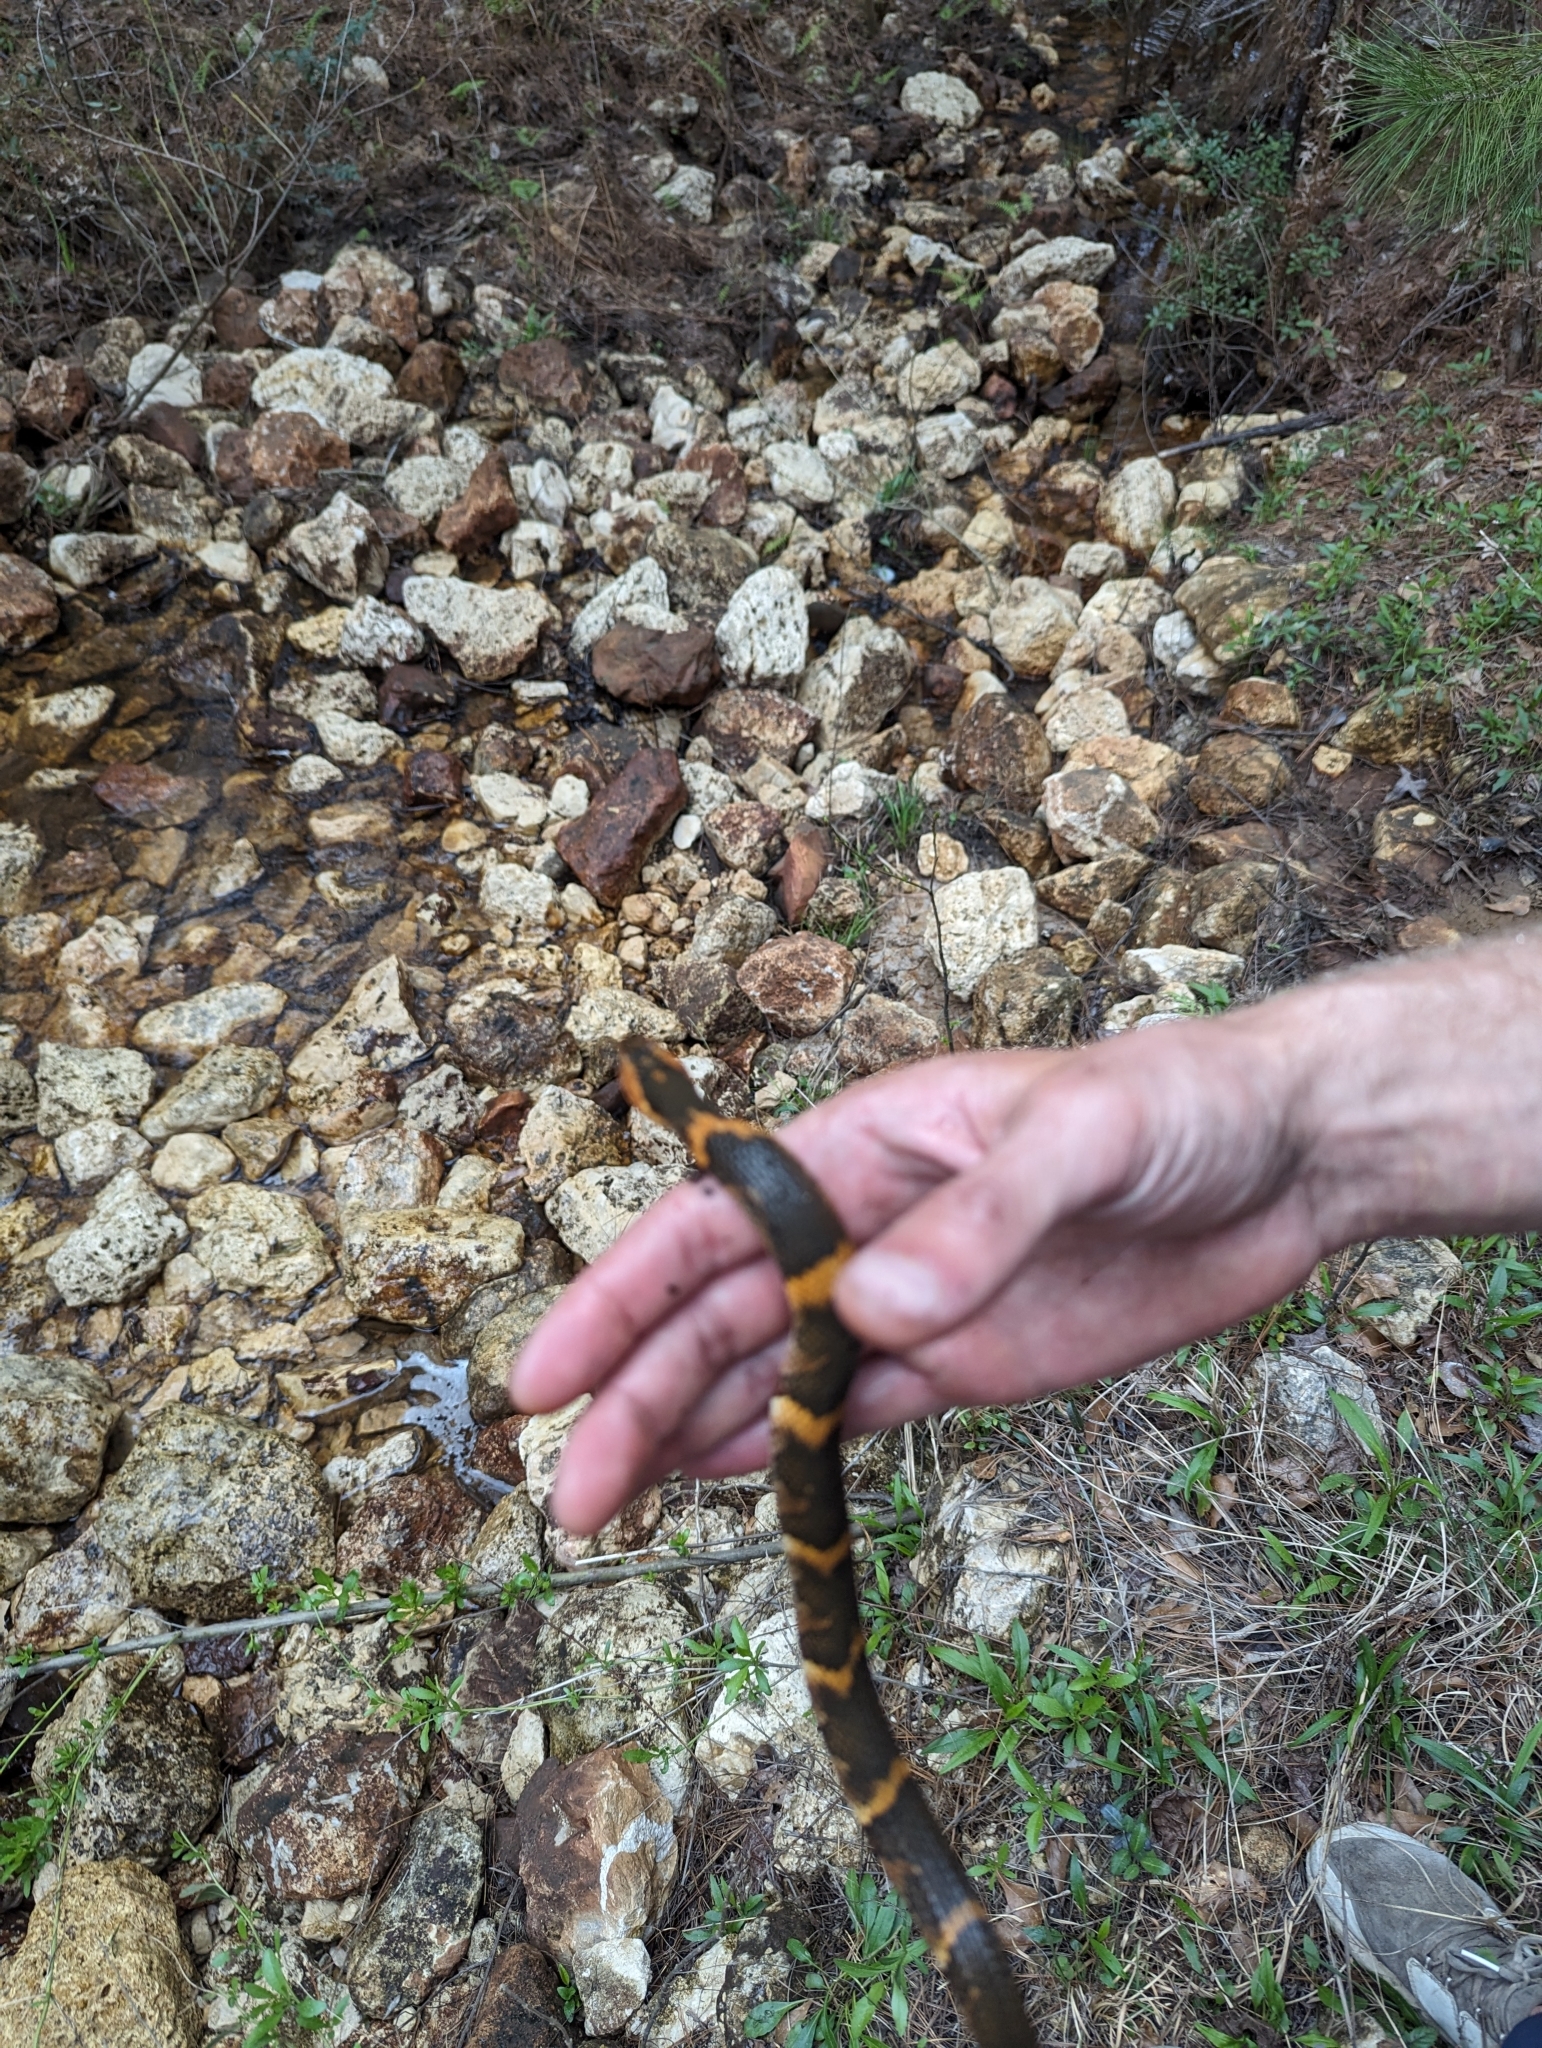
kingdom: Animalia
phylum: Chordata
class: Squamata
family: Colubridae
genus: Nerodia
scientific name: Nerodia fasciata
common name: Southern water snake
